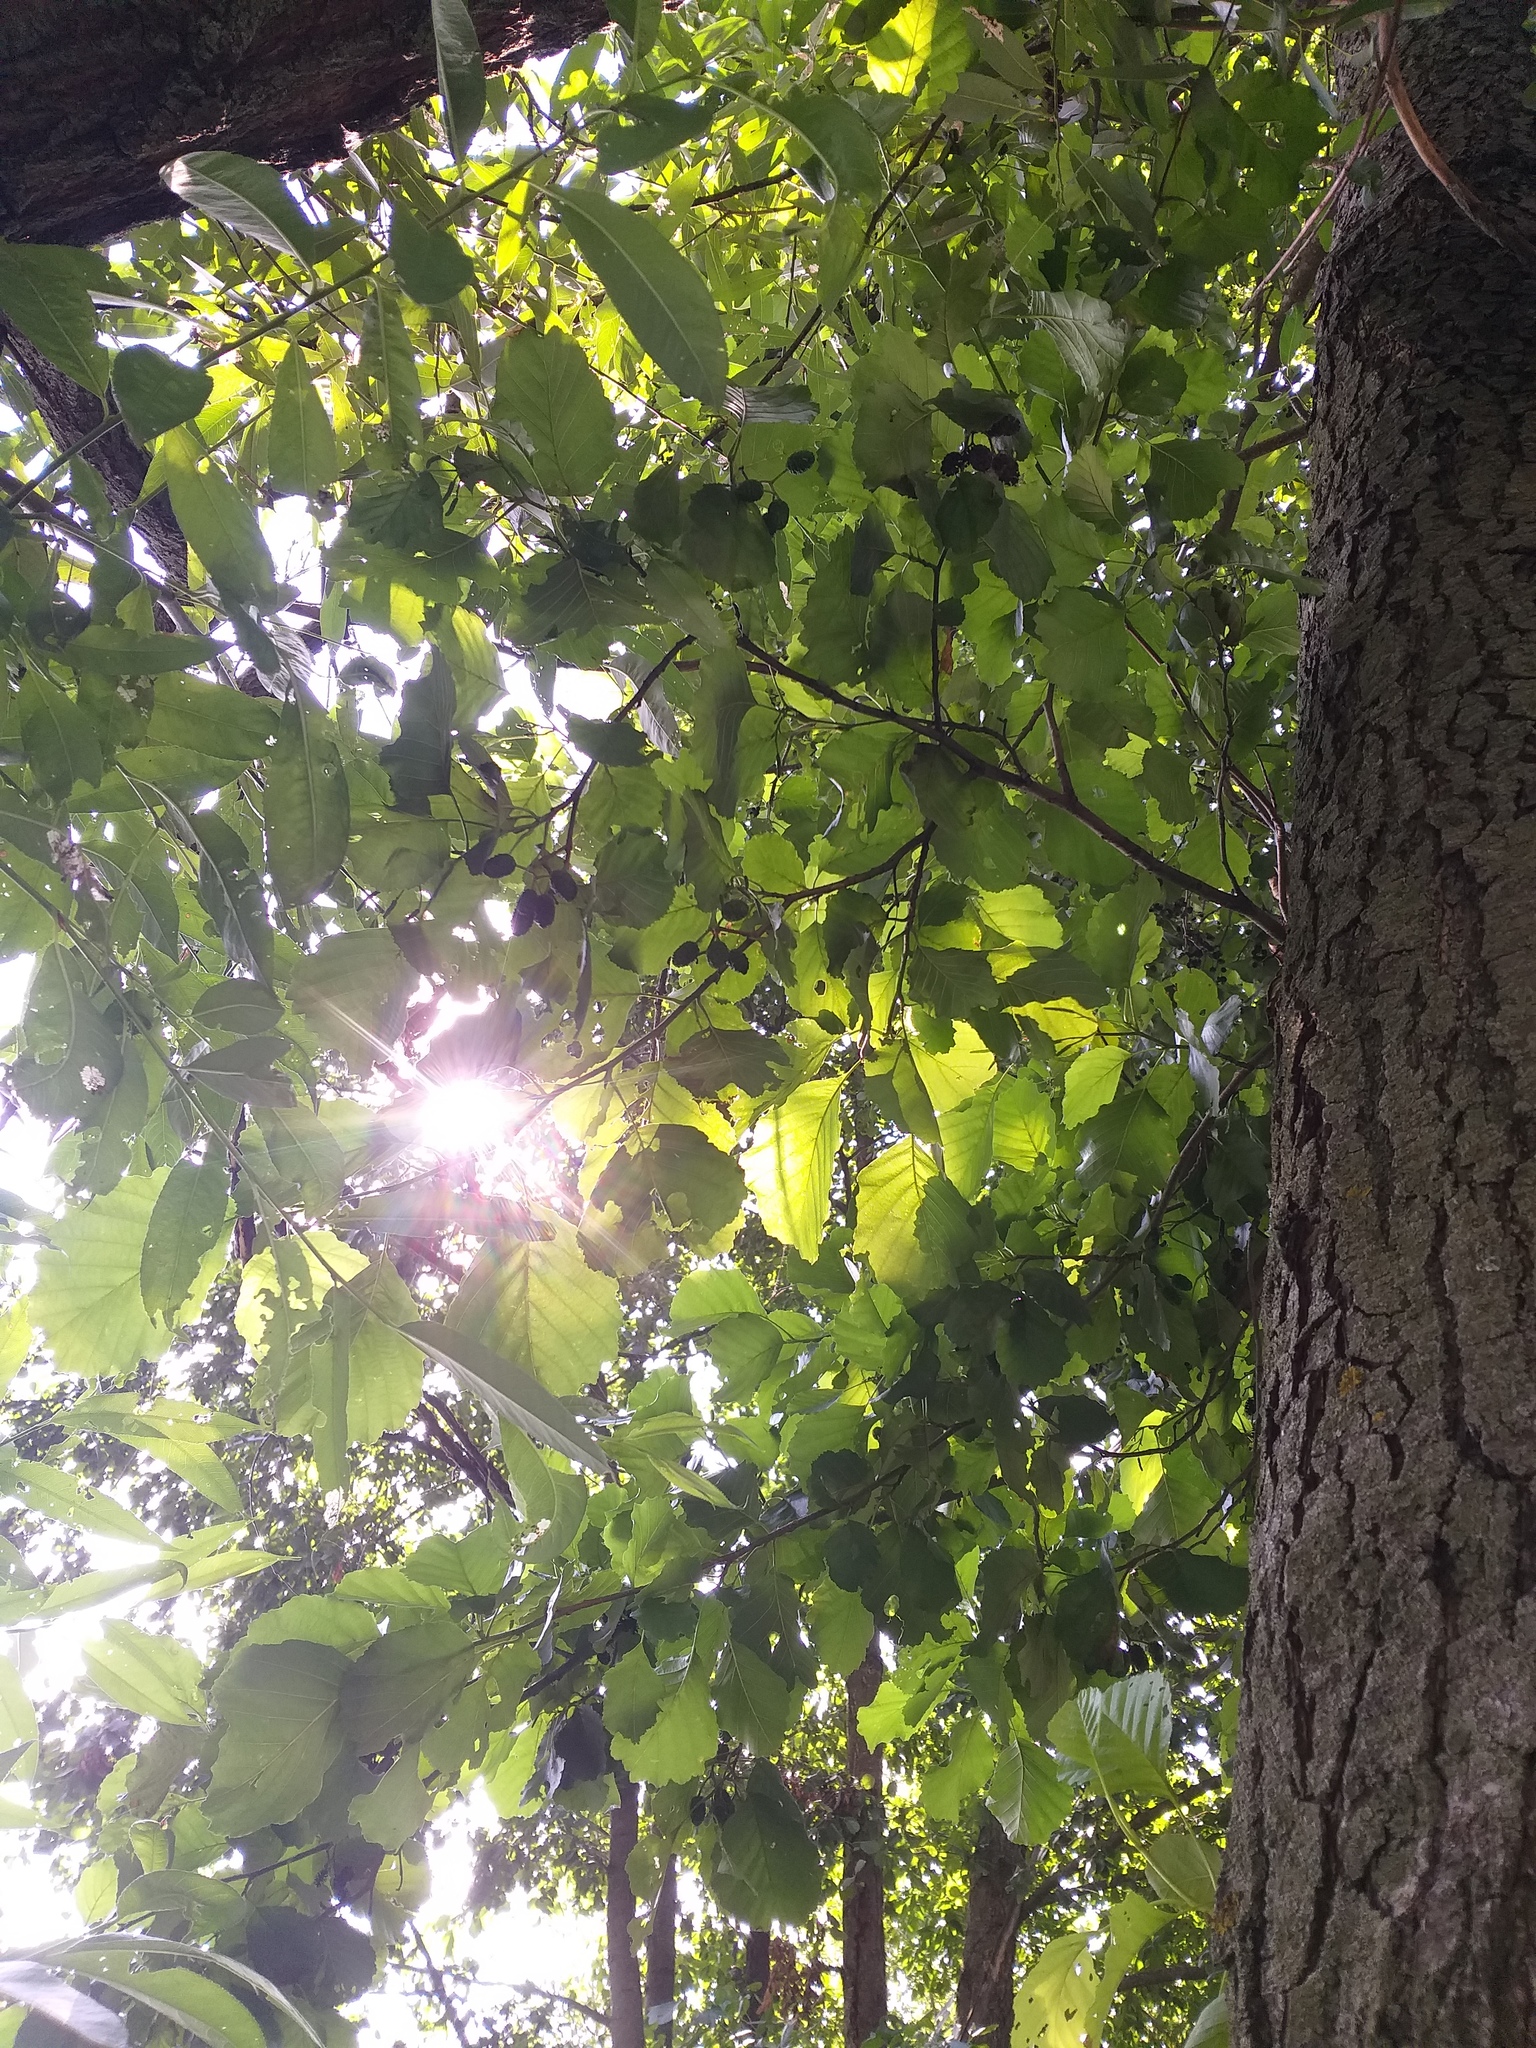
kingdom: Plantae
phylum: Tracheophyta
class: Magnoliopsida
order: Fagales
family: Betulaceae
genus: Alnus
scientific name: Alnus glutinosa
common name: Black alder
